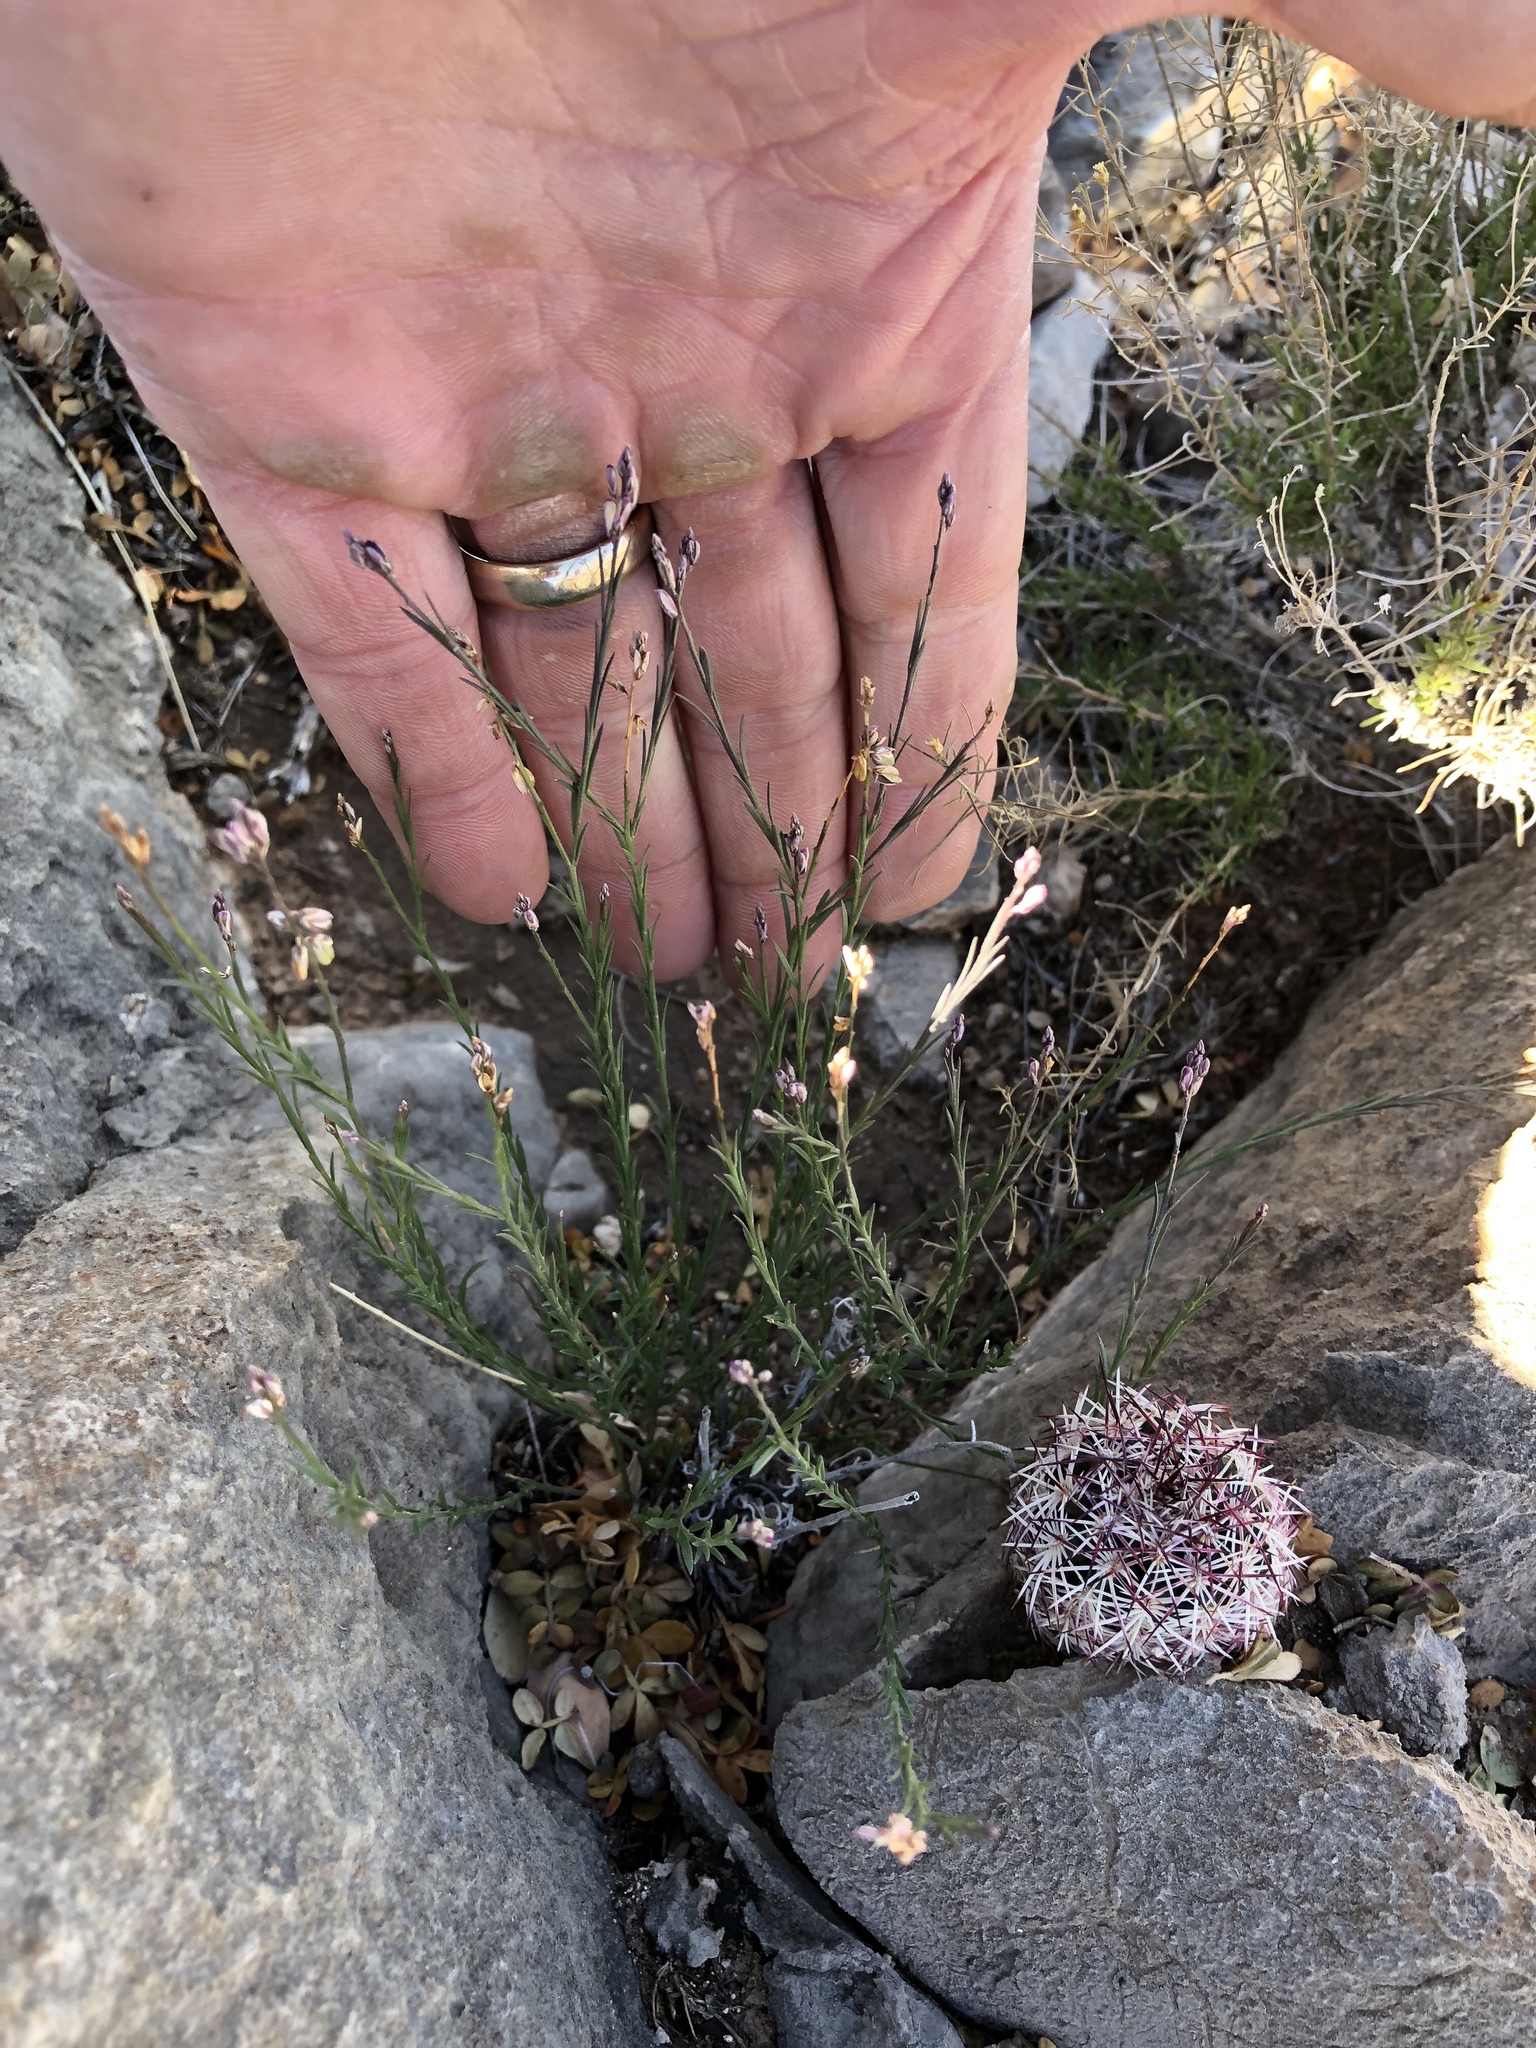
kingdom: Plantae
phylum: Tracheophyta
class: Magnoliopsida
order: Fabales
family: Polygalaceae
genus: Polygala
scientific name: Polygala scoparioides
